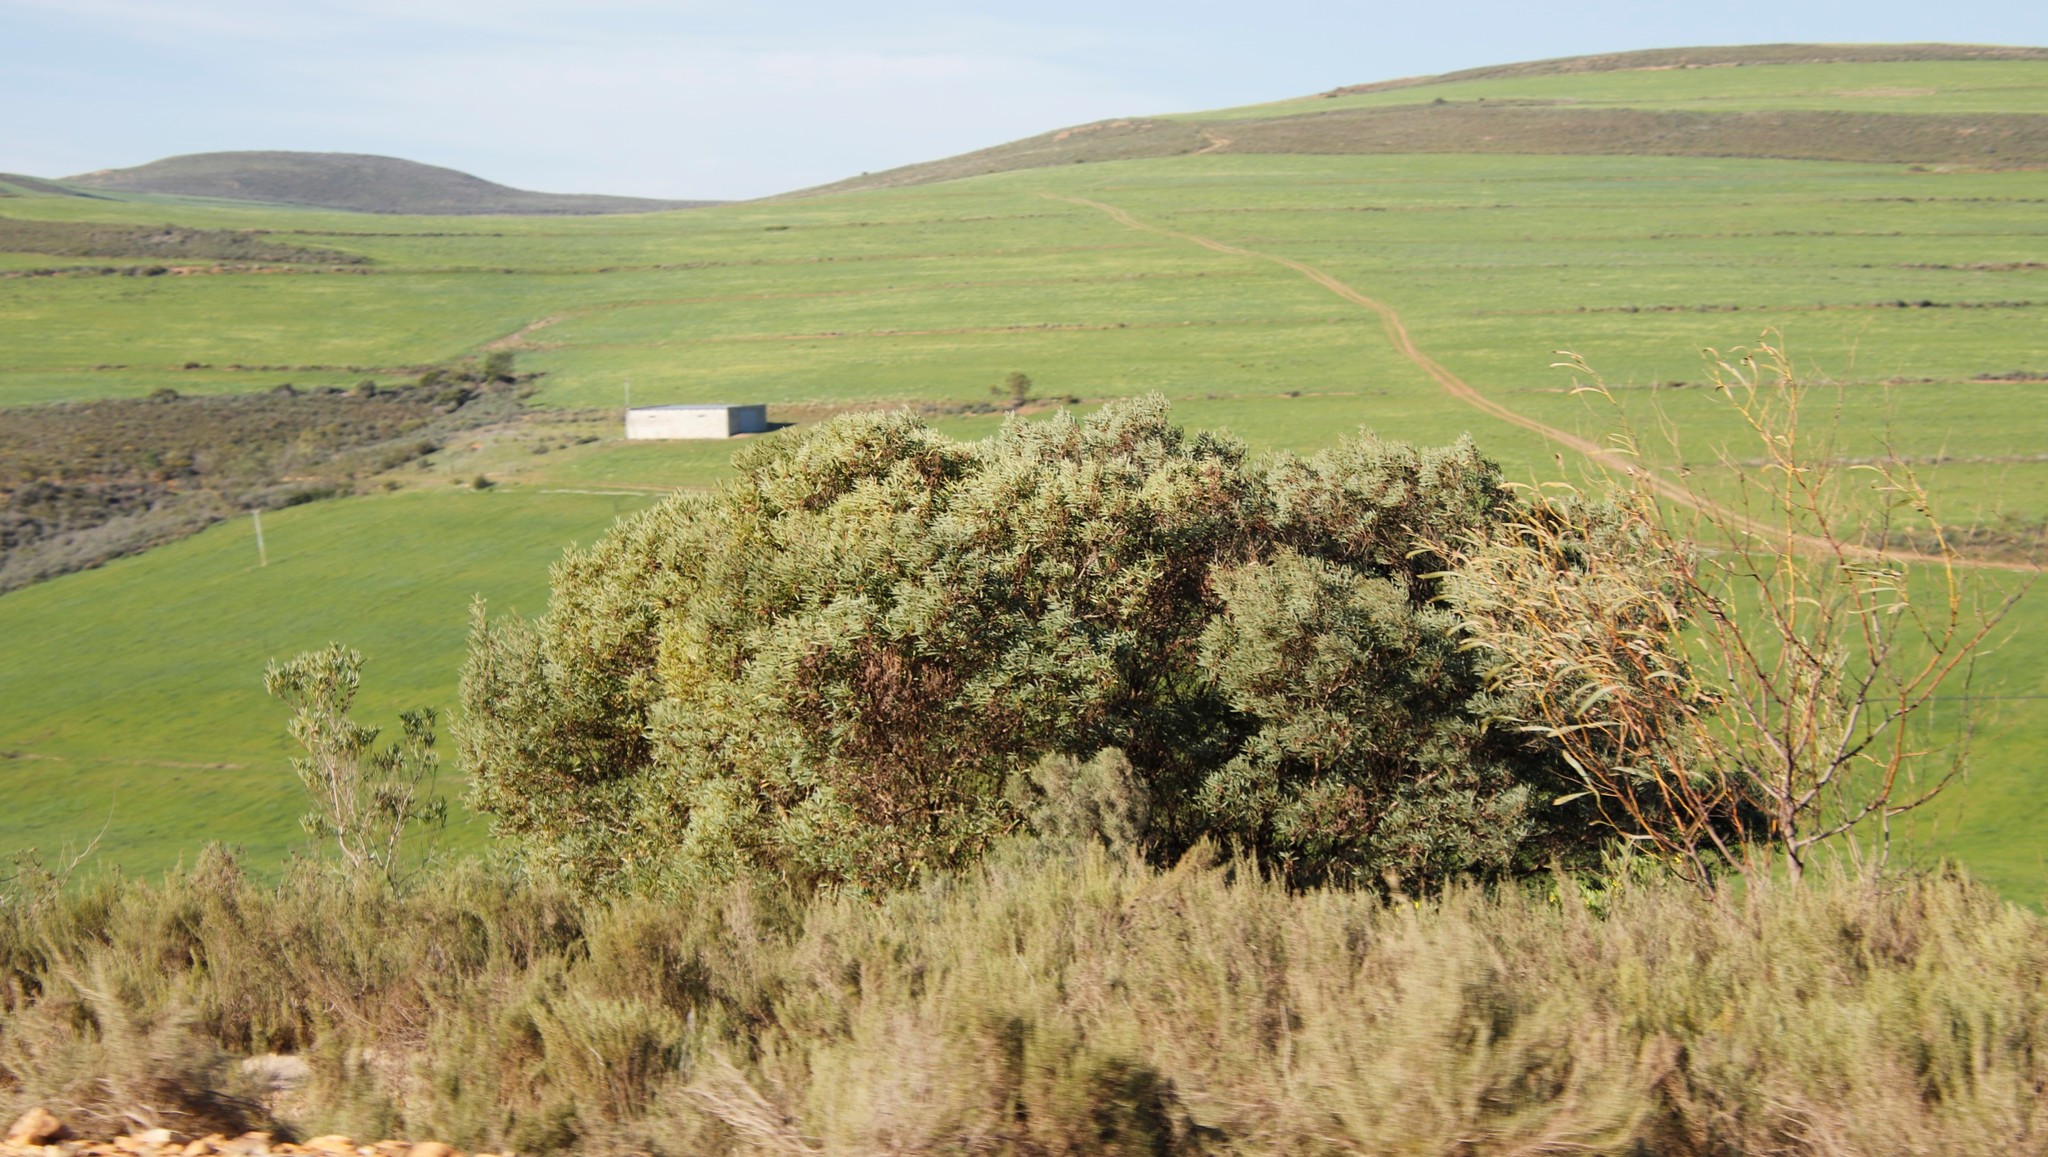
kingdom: Plantae
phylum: Tracheophyta
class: Magnoliopsida
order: Fabales
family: Fabaceae
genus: Acacia
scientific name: Acacia cyclops
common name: Coastal wattle
